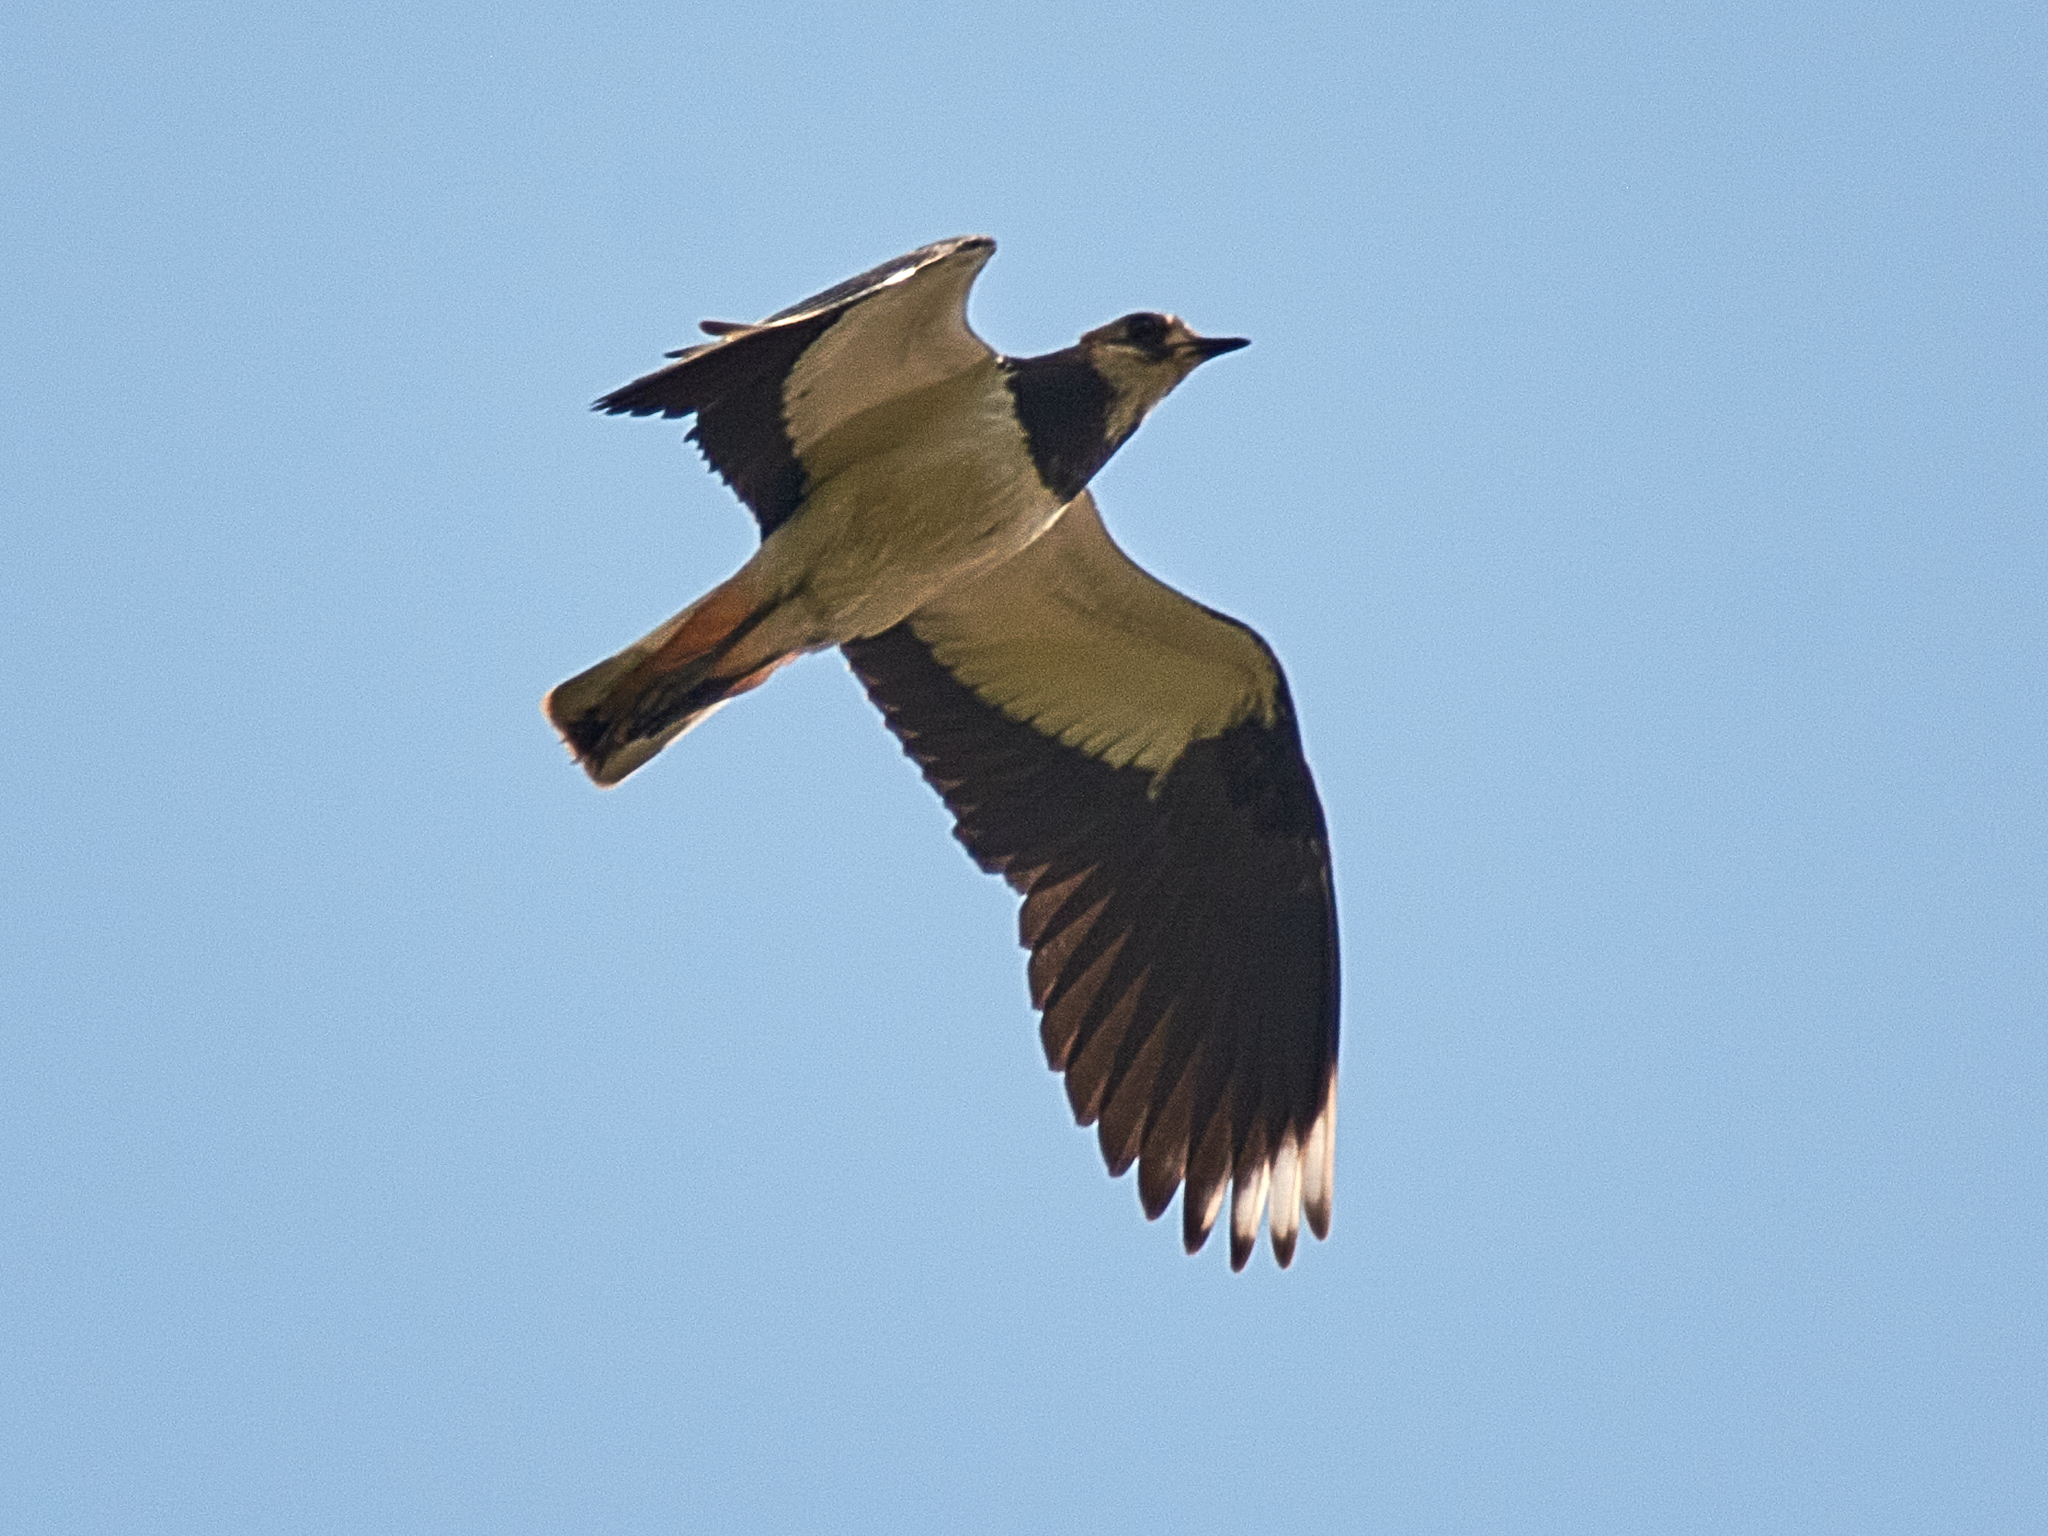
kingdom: Animalia
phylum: Chordata
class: Aves
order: Charadriiformes
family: Charadriidae
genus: Vanellus
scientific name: Vanellus vanellus
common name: Northern lapwing
